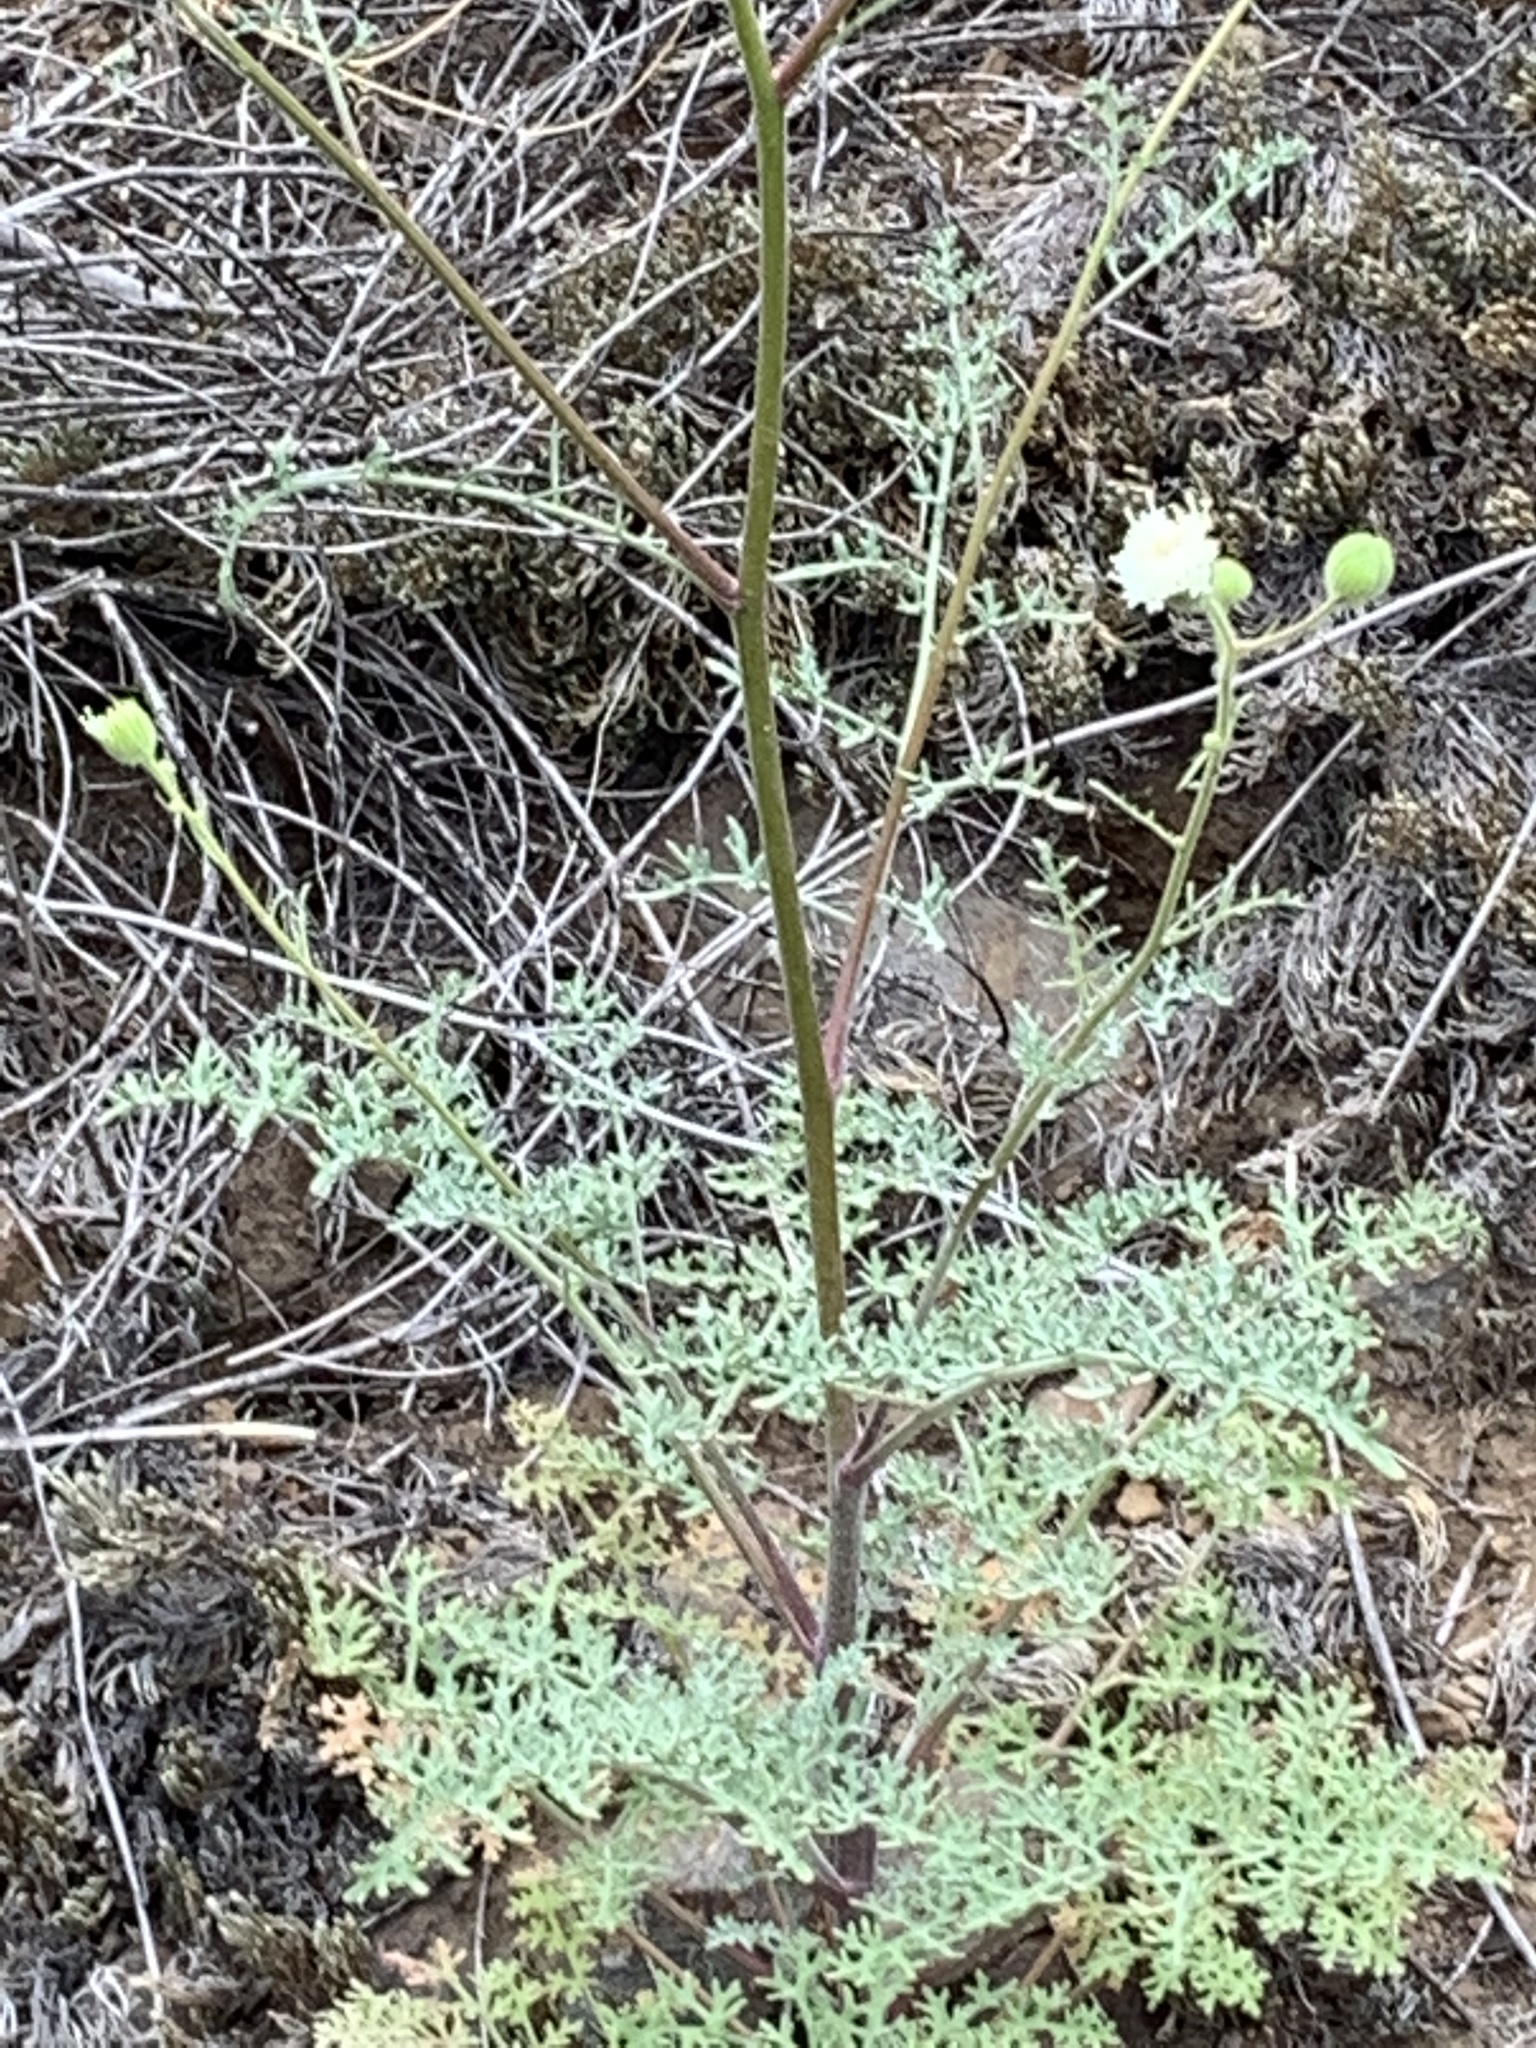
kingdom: Plantae
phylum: Tracheophyta
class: Magnoliopsida
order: Asterales
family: Asteraceae
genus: Chaenactis
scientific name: Chaenactis artemisiifolia
